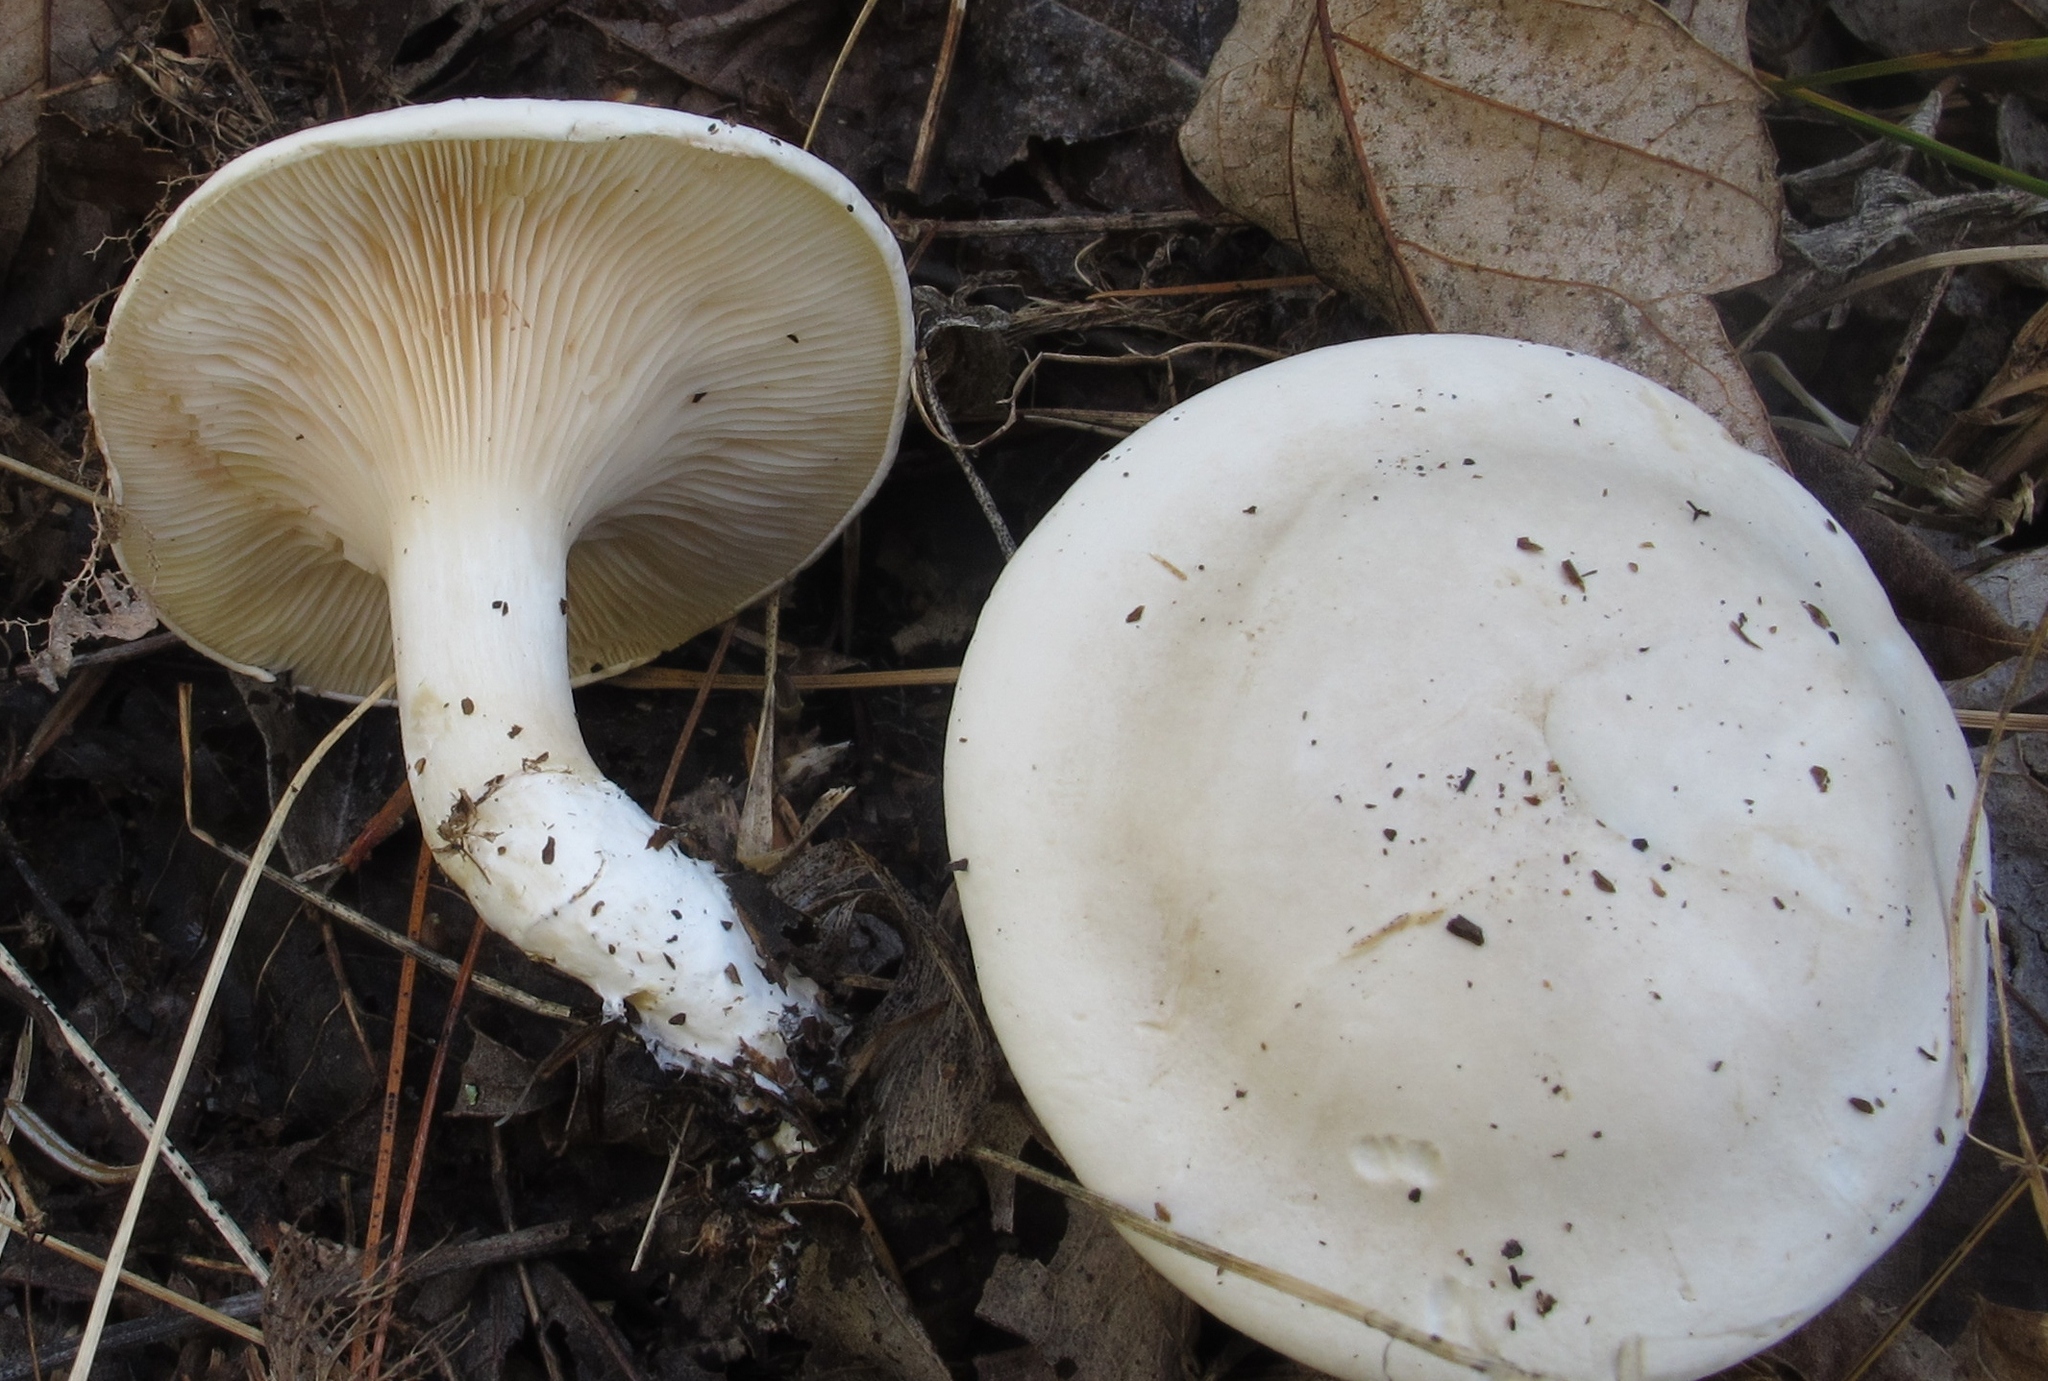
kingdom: Fungi
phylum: Basidiomycota
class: Agaricomycetes
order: Agaricales
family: Entolomataceae
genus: Clitopilus
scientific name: Clitopilus prunulus
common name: The miller
